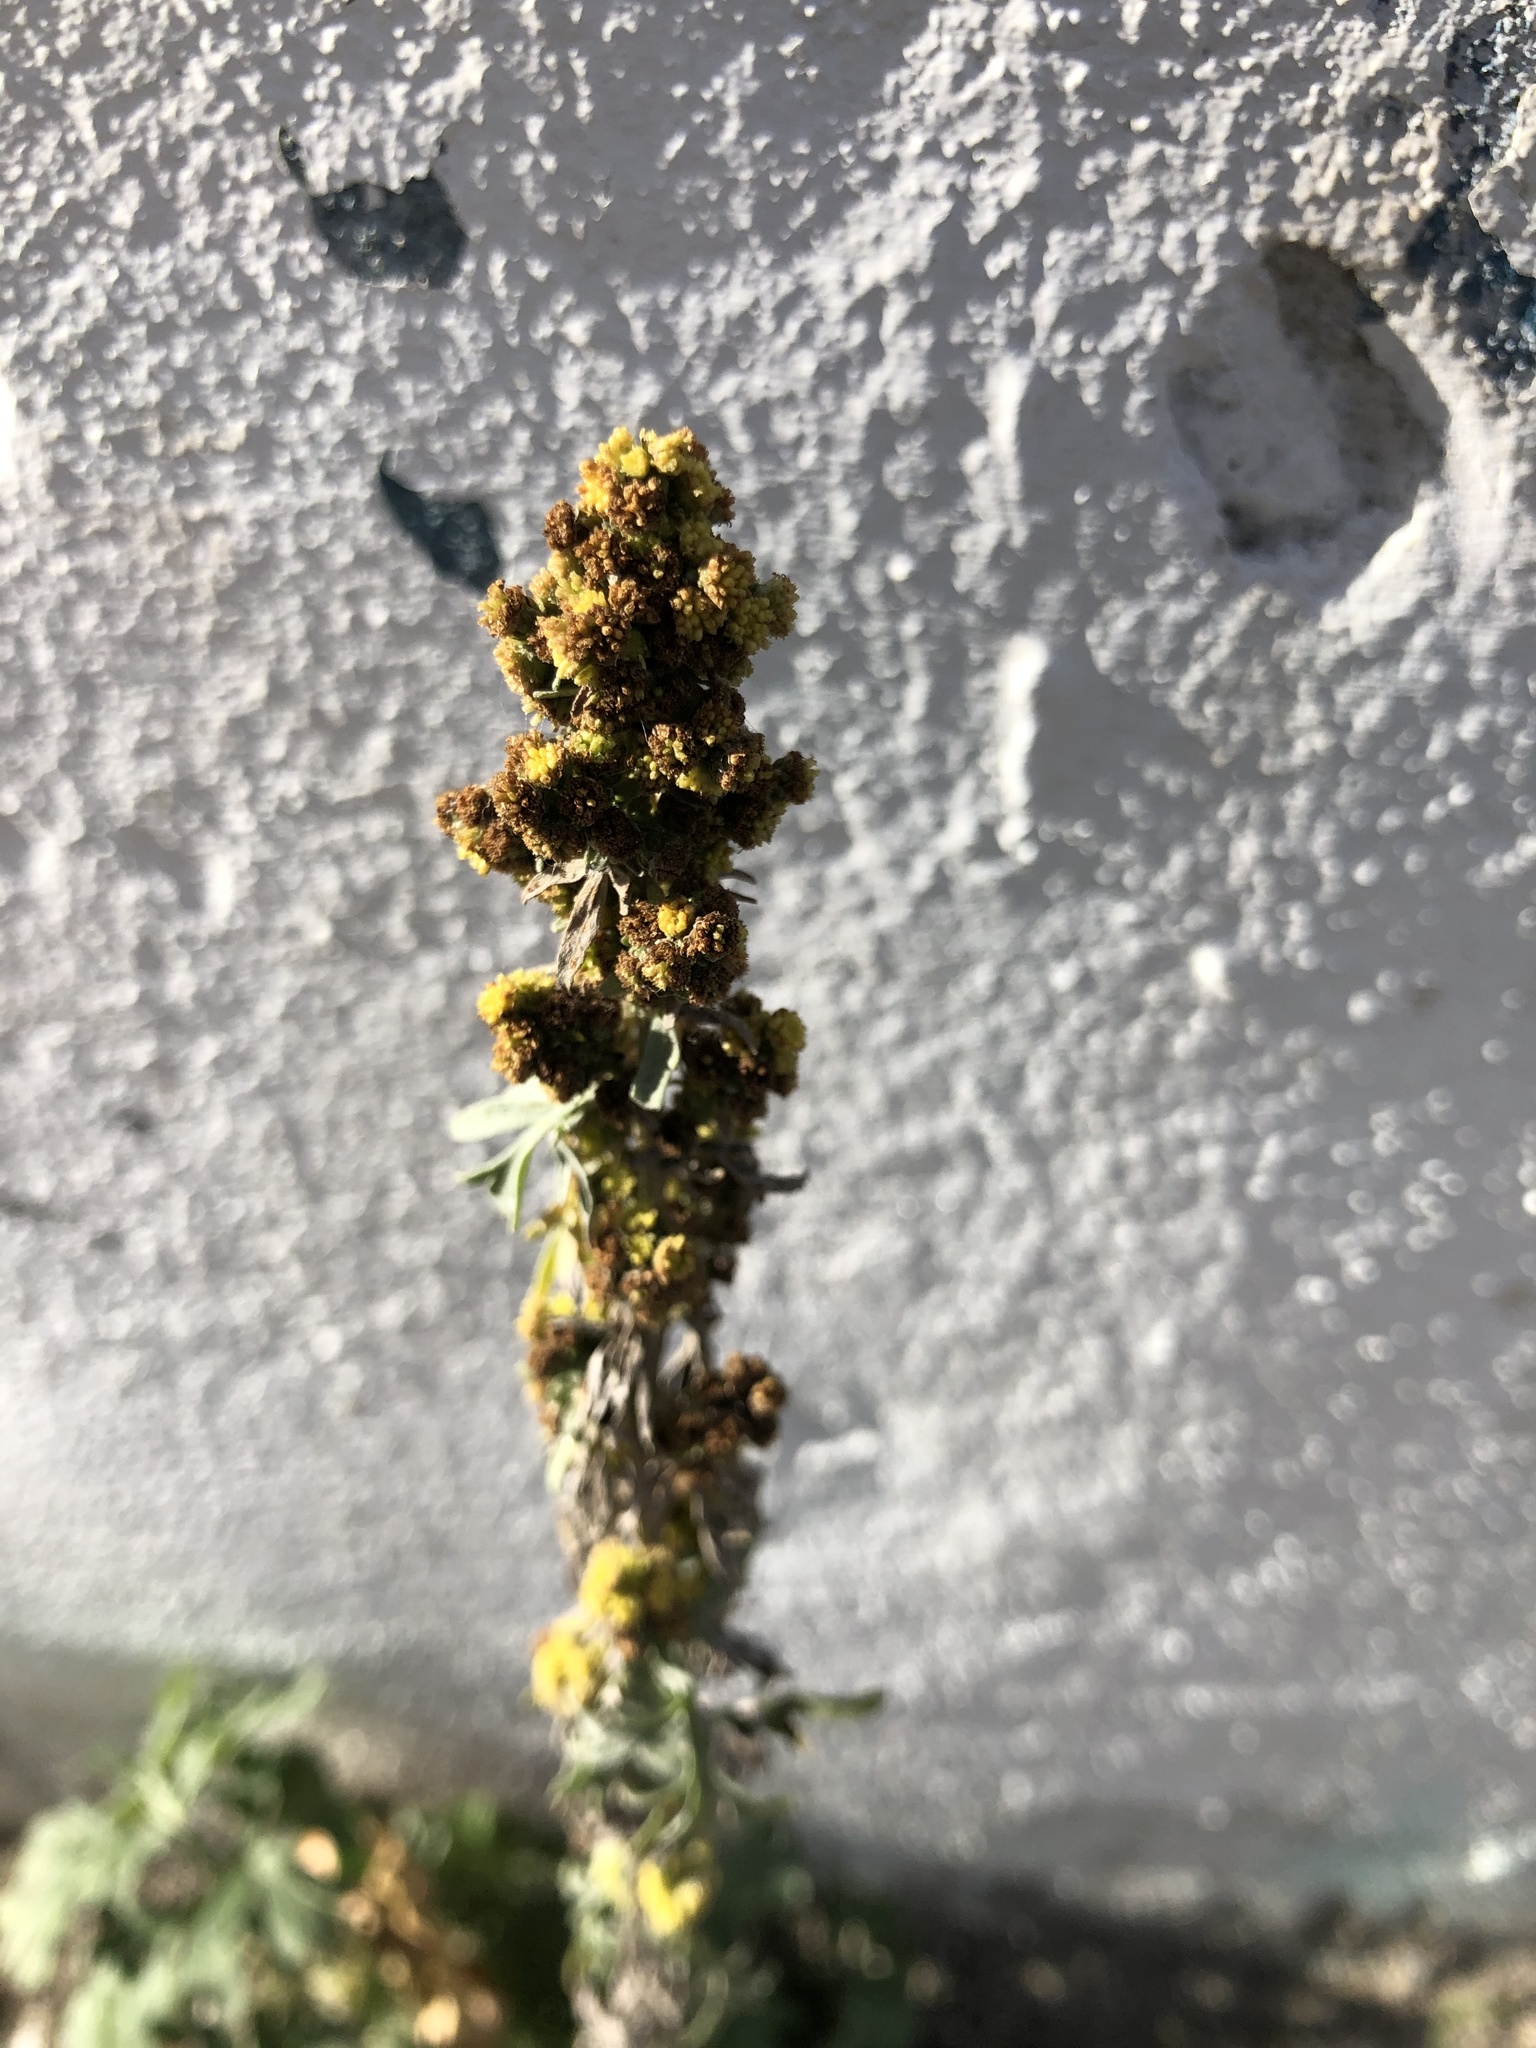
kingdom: Plantae
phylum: Tracheophyta
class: Magnoliopsida
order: Asterales
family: Asteraceae
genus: Artemisia
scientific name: Artemisia absinthium
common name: Wormwood
